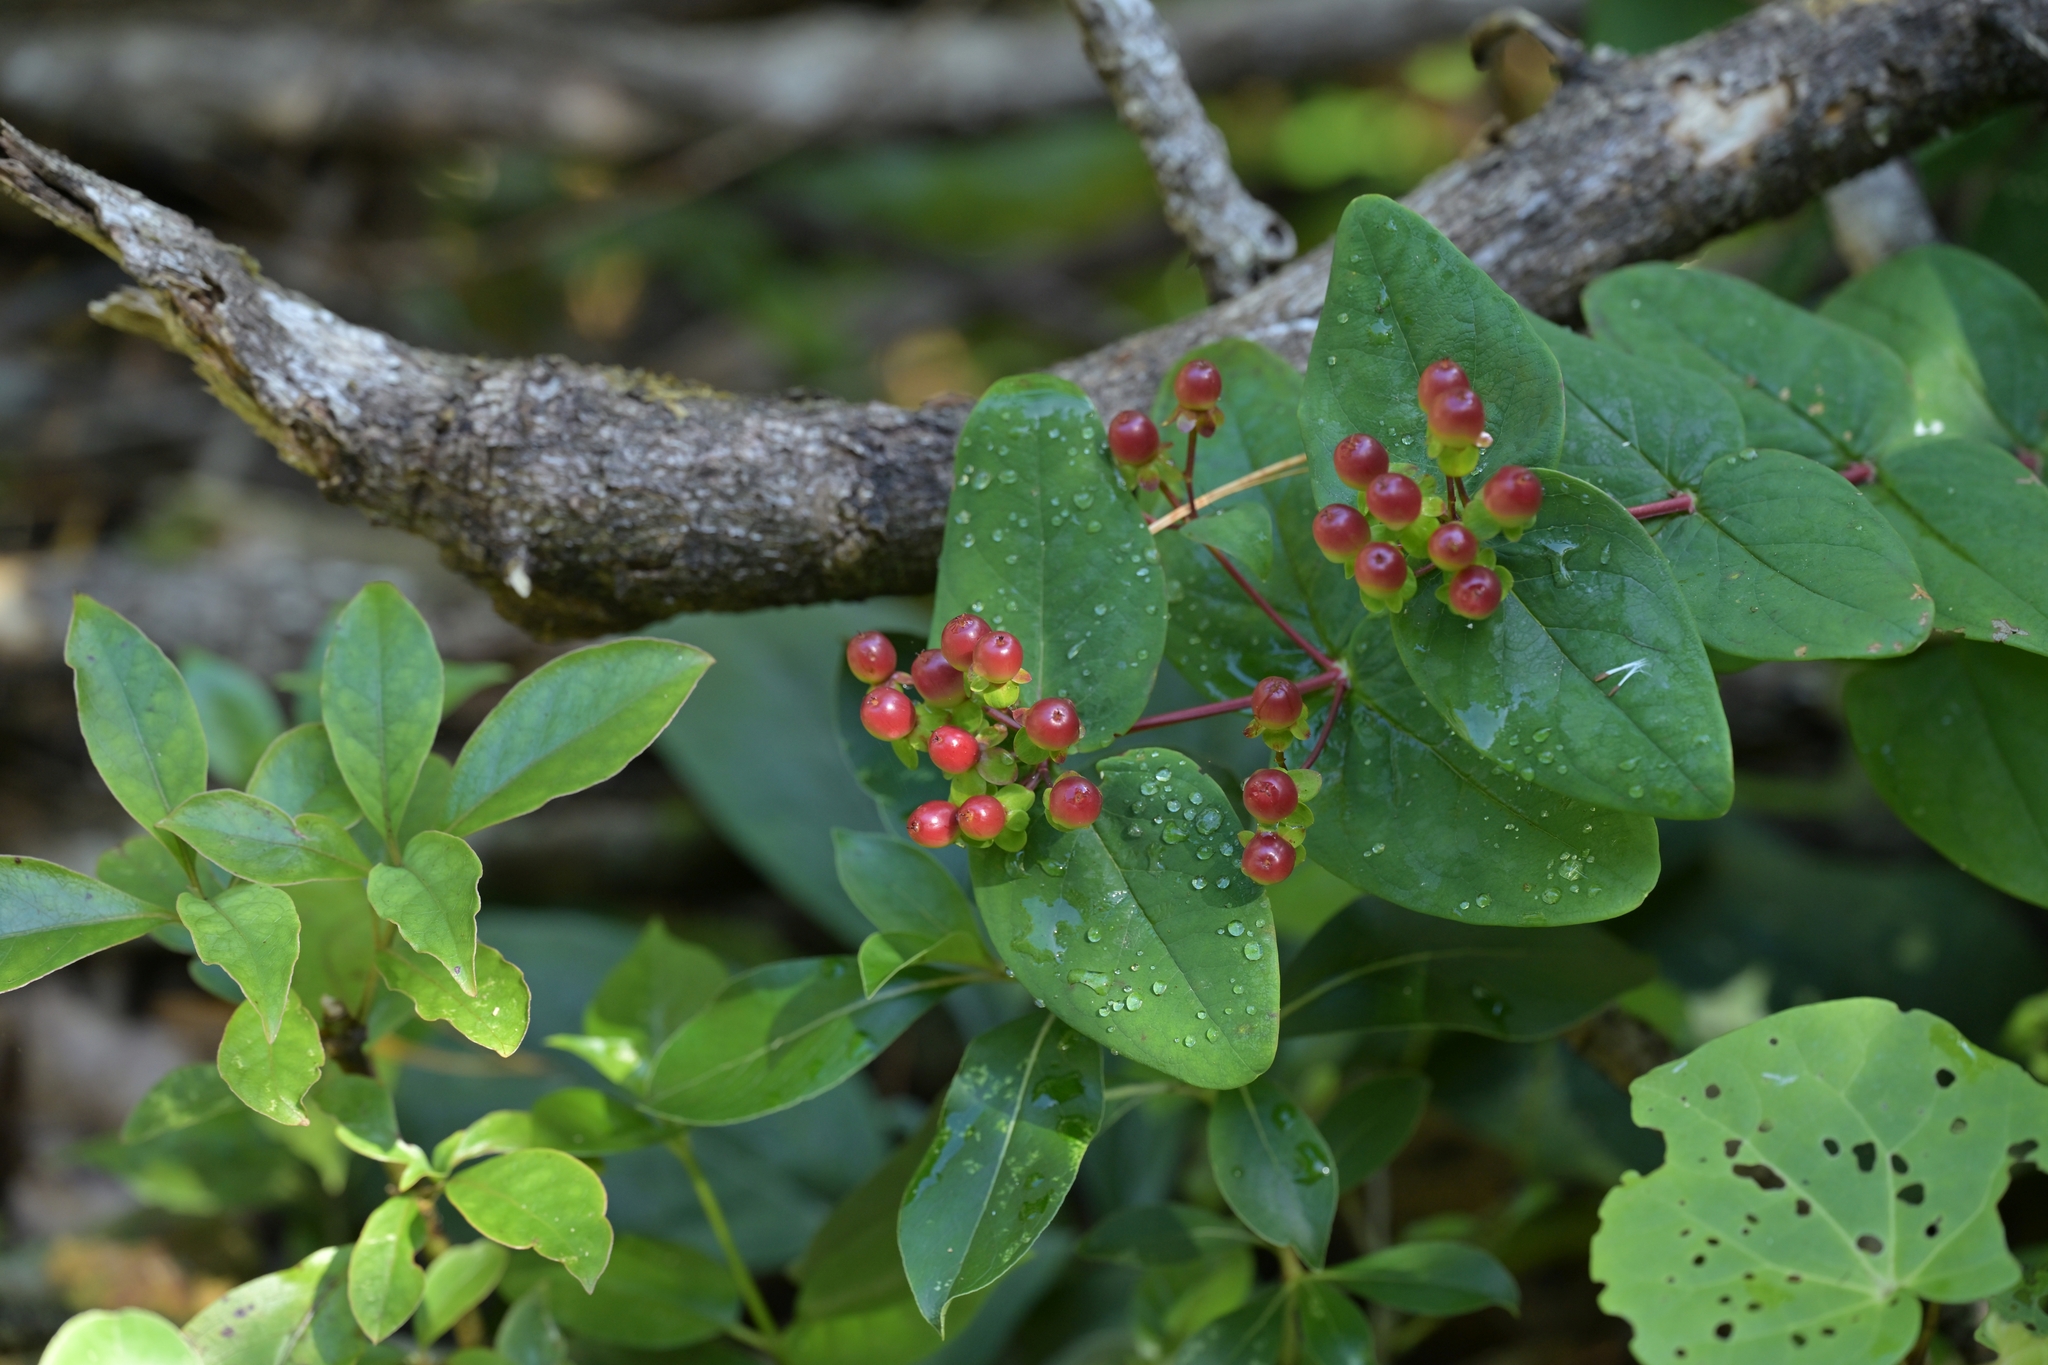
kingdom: Plantae
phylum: Tracheophyta
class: Magnoliopsida
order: Malpighiales
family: Hypericaceae
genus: Hypericum
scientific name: Hypericum androsaemum
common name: Sweet-amber
